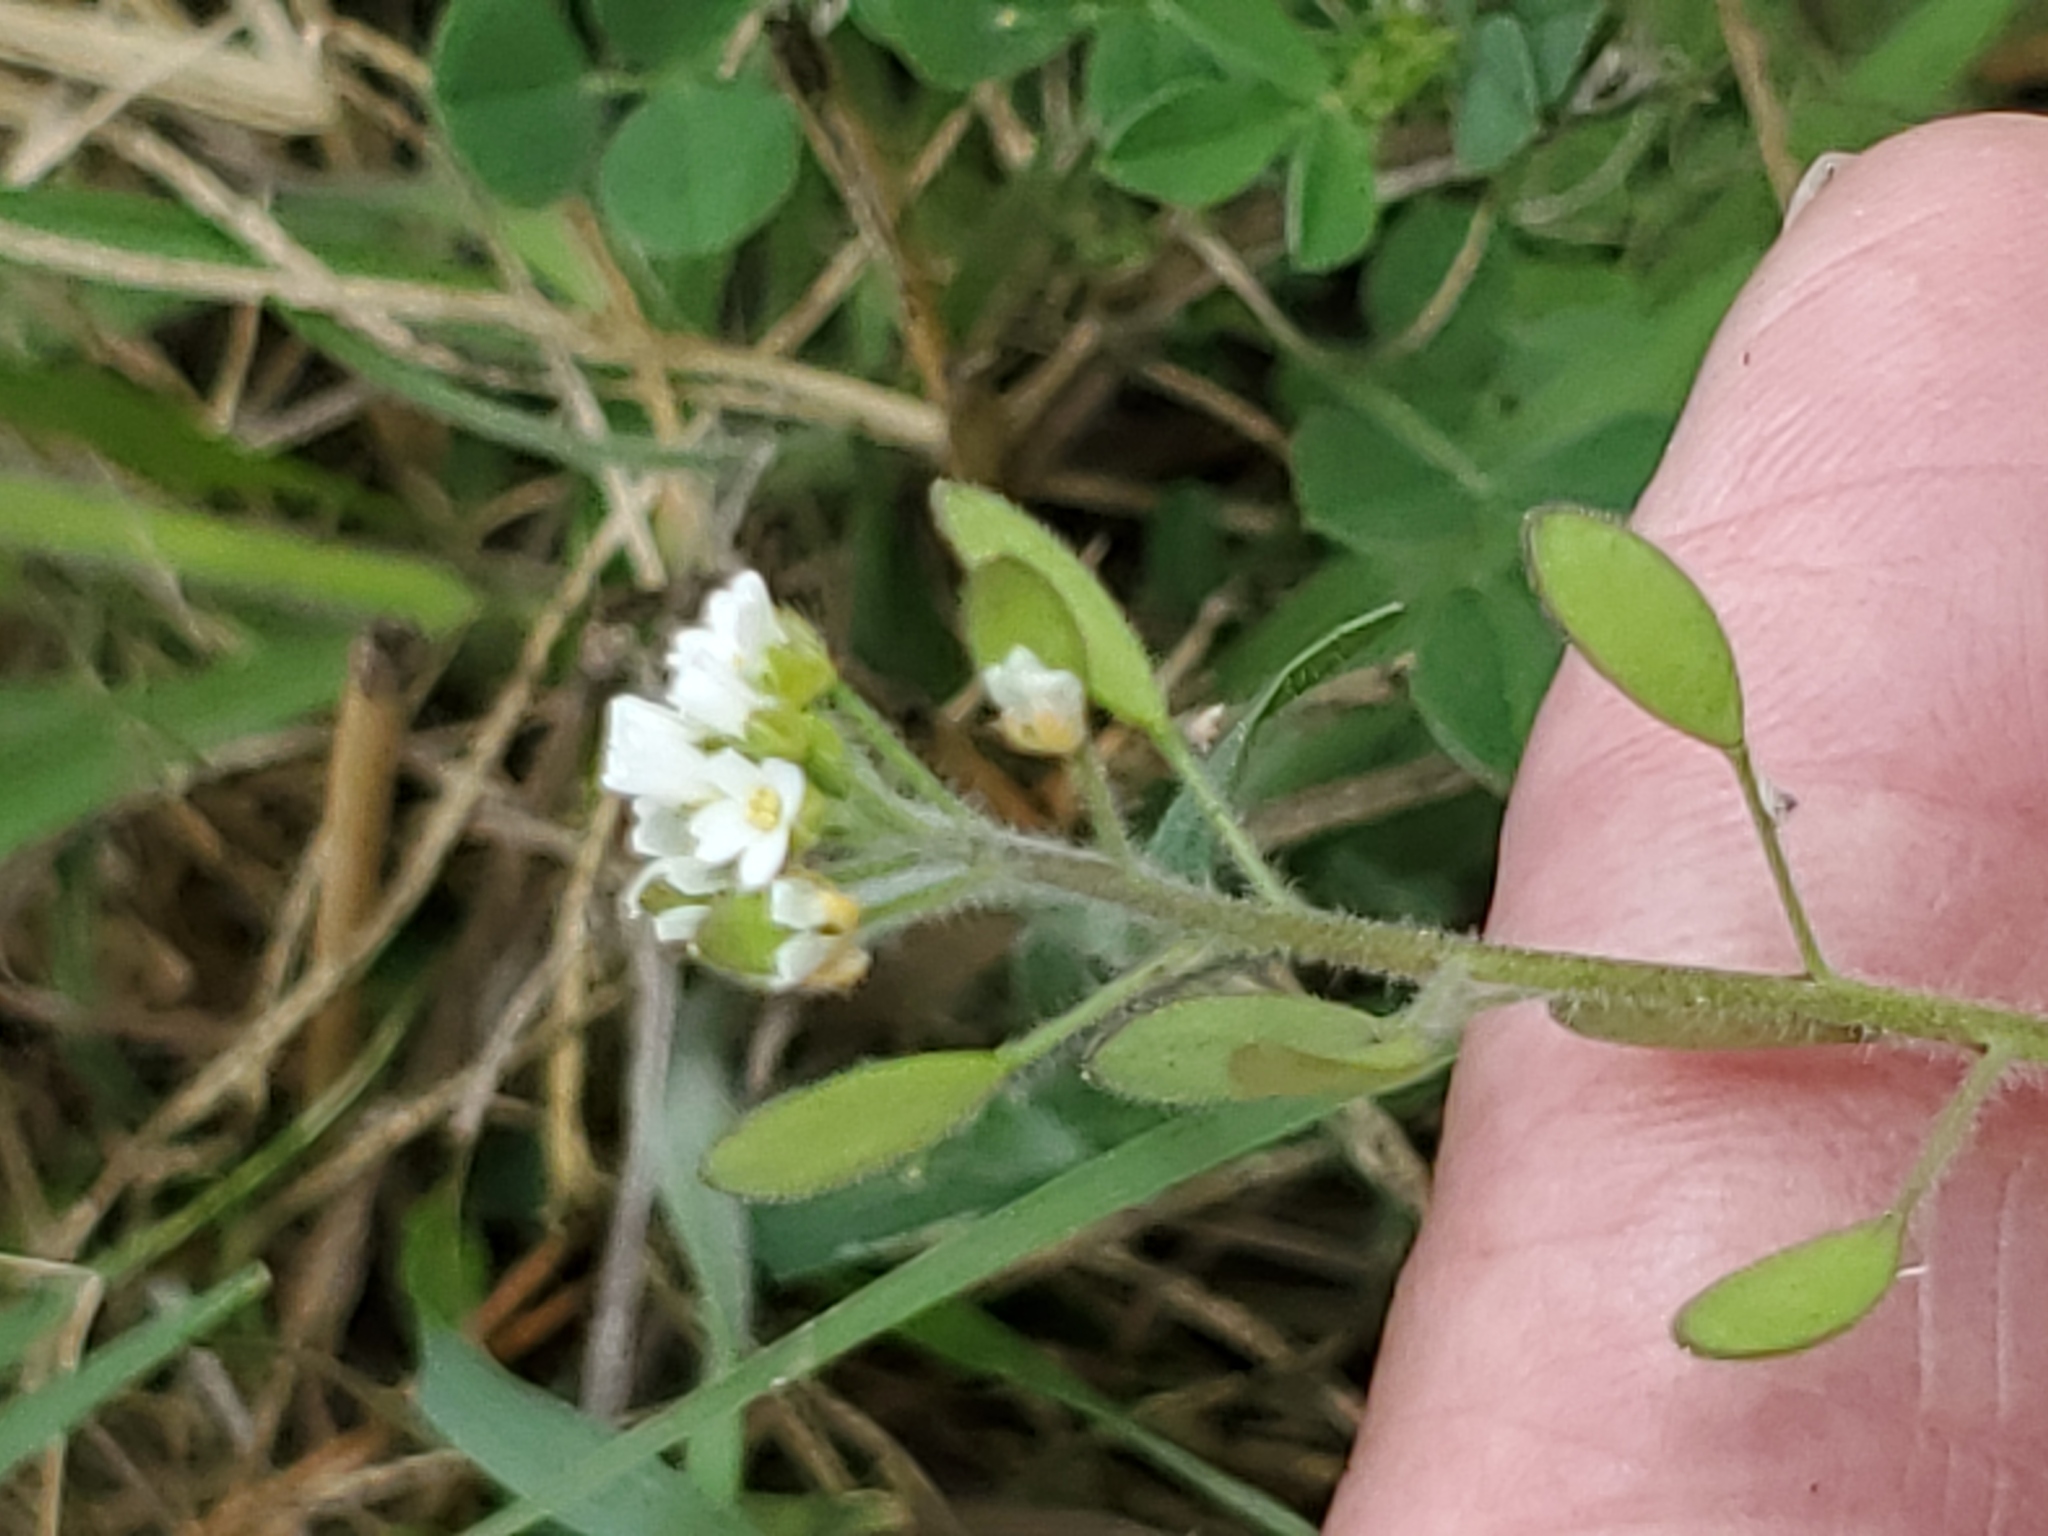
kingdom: Plantae
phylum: Tracheophyta
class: Magnoliopsida
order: Brassicales
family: Brassicaceae
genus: Tomostima
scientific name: Tomostima platycarpa
